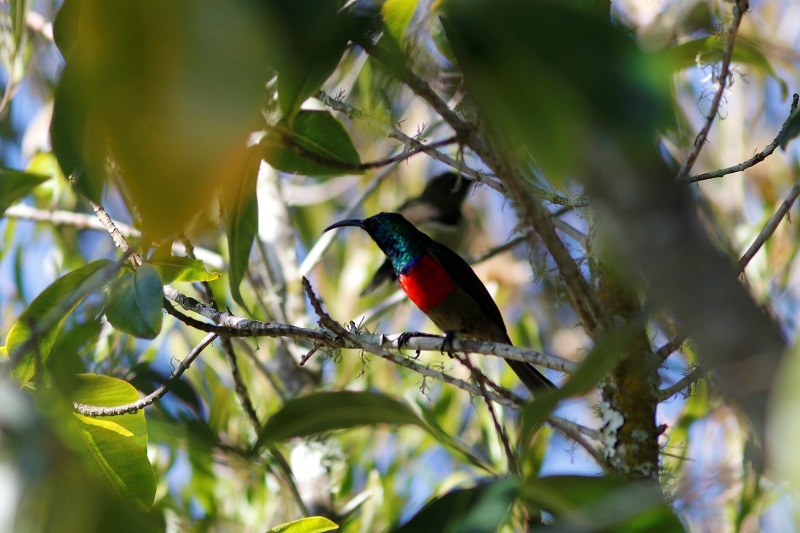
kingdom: Animalia
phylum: Chordata
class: Aves
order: Passeriformes
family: Nectariniidae
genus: Cinnyris
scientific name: Cinnyris afer
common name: Greater double-collared sunbird
